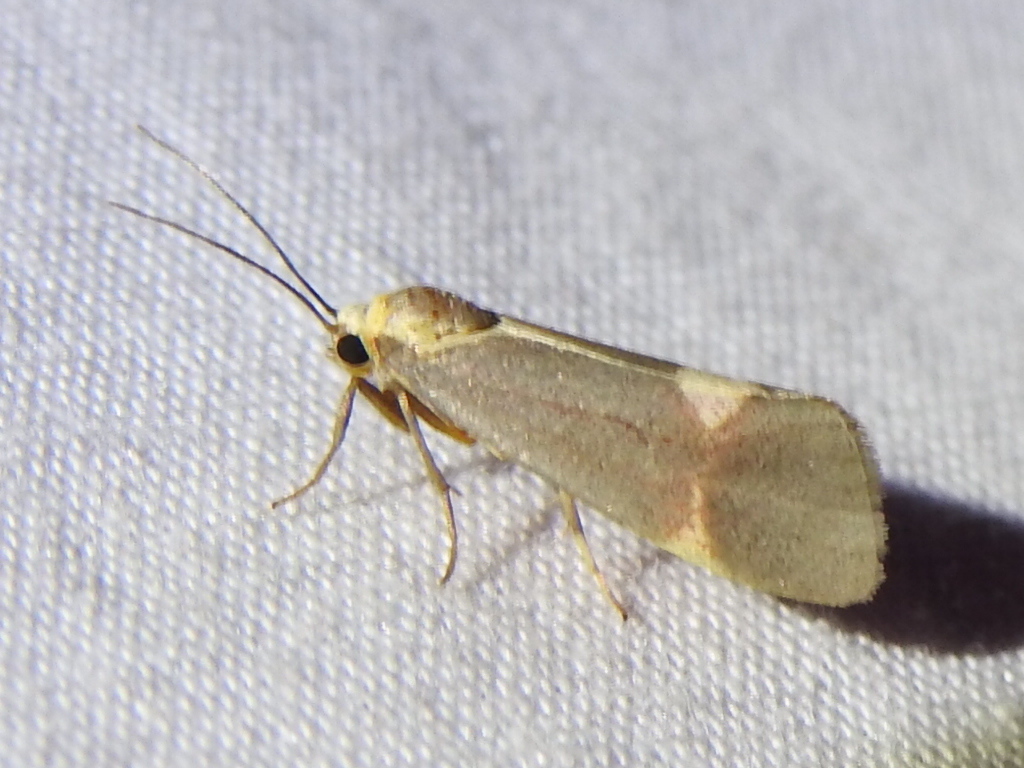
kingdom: Animalia
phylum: Arthropoda
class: Insecta
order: Lepidoptera
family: Erebidae
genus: Cisthene
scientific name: Cisthene tenuifascia
